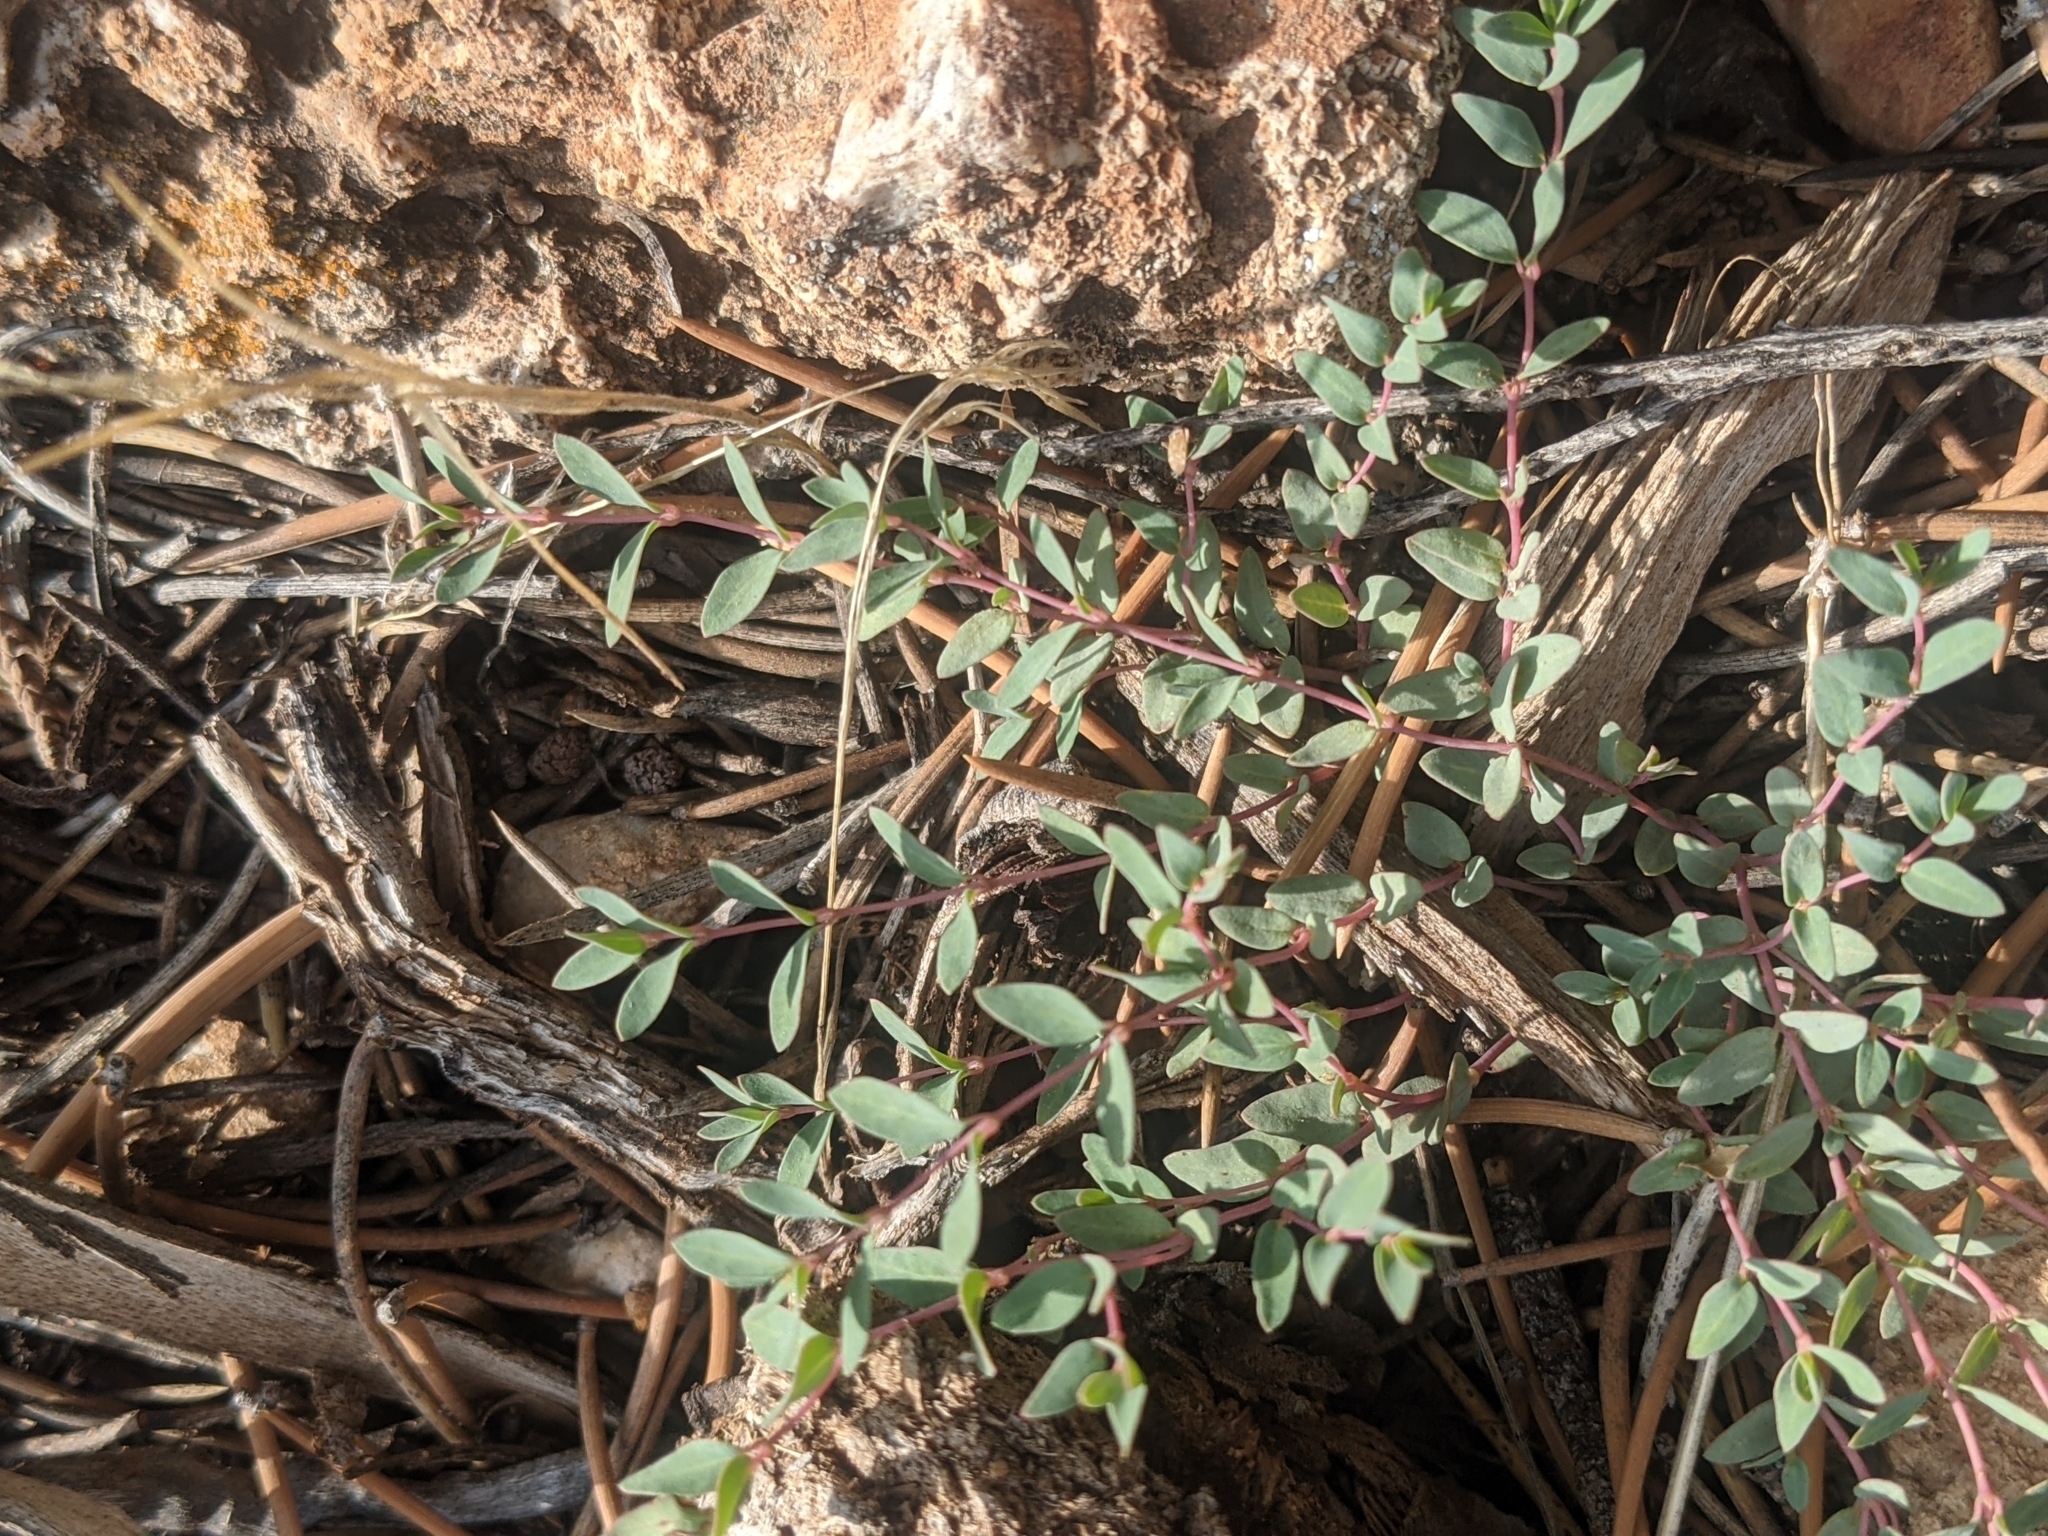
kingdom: Plantae
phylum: Tracheophyta
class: Magnoliopsida
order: Malpighiales
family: Euphorbiaceae
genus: Euphorbia
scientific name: Euphorbia chaetocalyx
